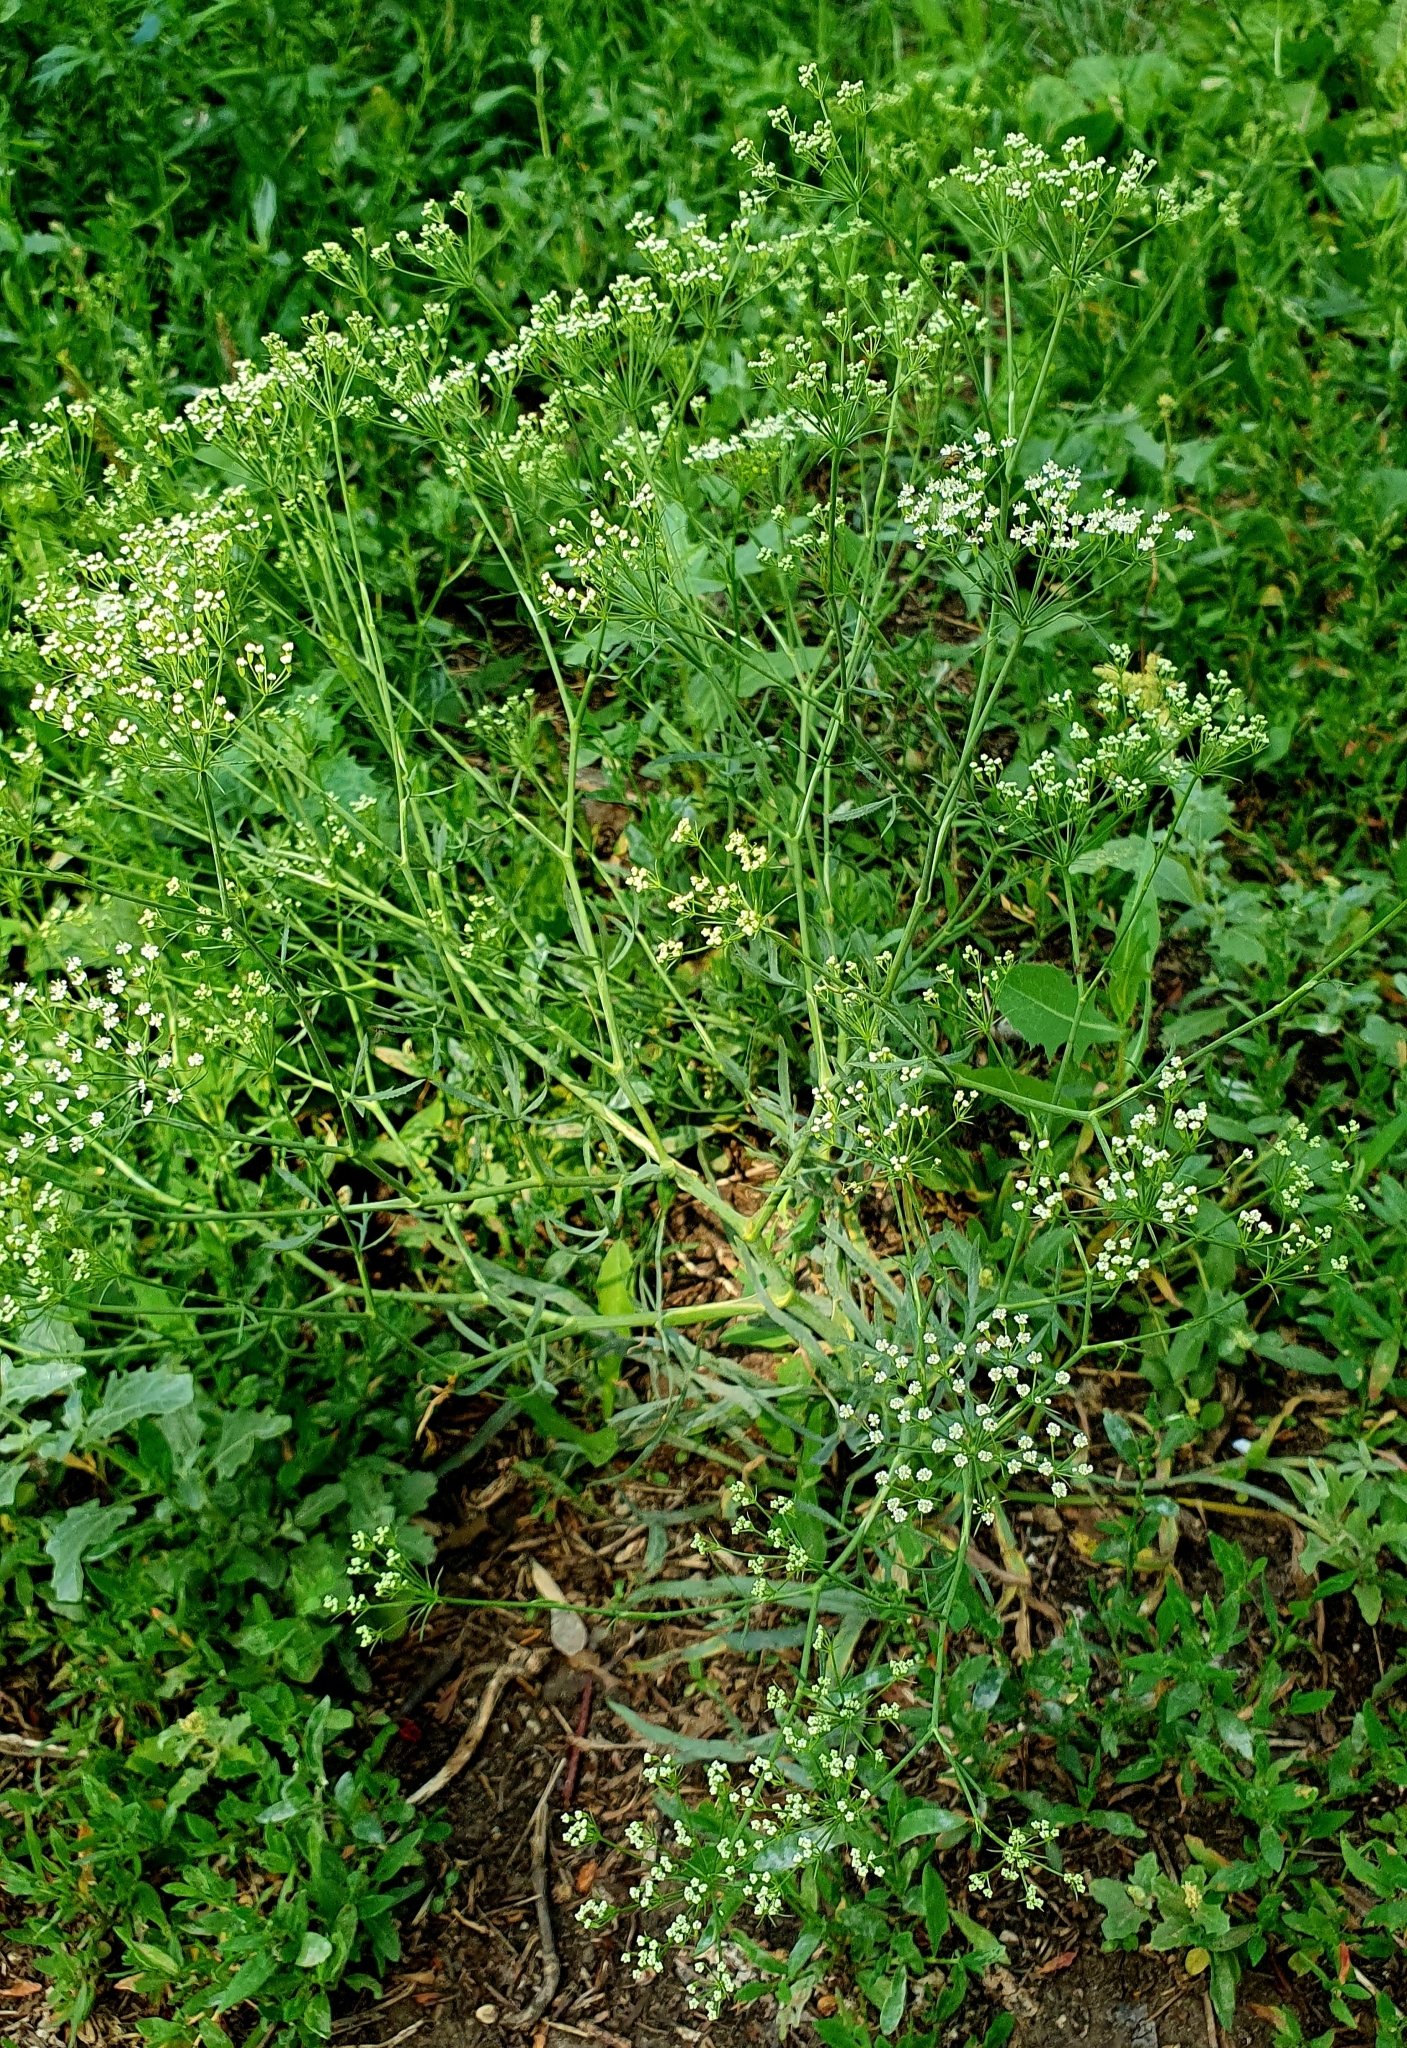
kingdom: Plantae
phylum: Tracheophyta
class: Magnoliopsida
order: Apiales
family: Apiaceae
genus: Falcaria
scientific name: Falcaria vulgaris
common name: Longleaf
